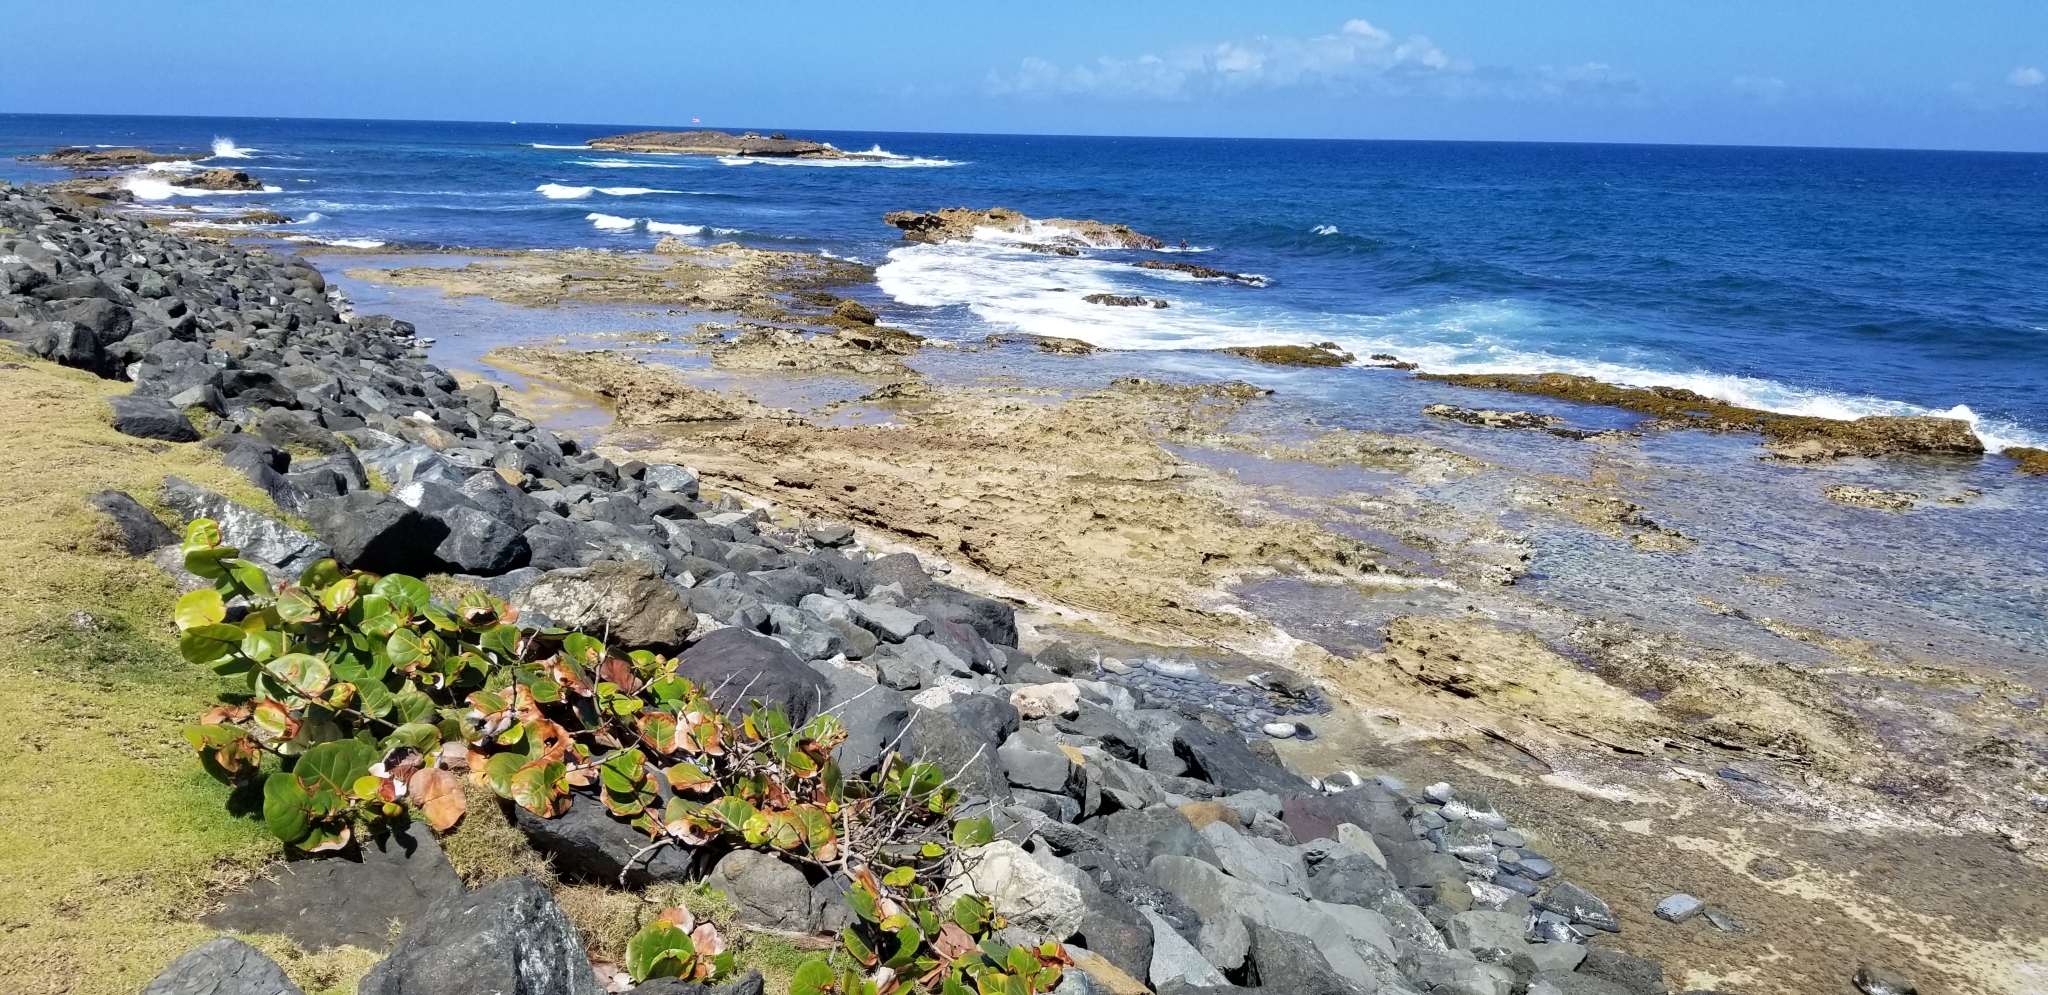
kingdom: Plantae
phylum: Tracheophyta
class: Magnoliopsida
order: Caryophyllales
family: Polygonaceae
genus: Coccoloba
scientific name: Coccoloba uvifera
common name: Seagrape
